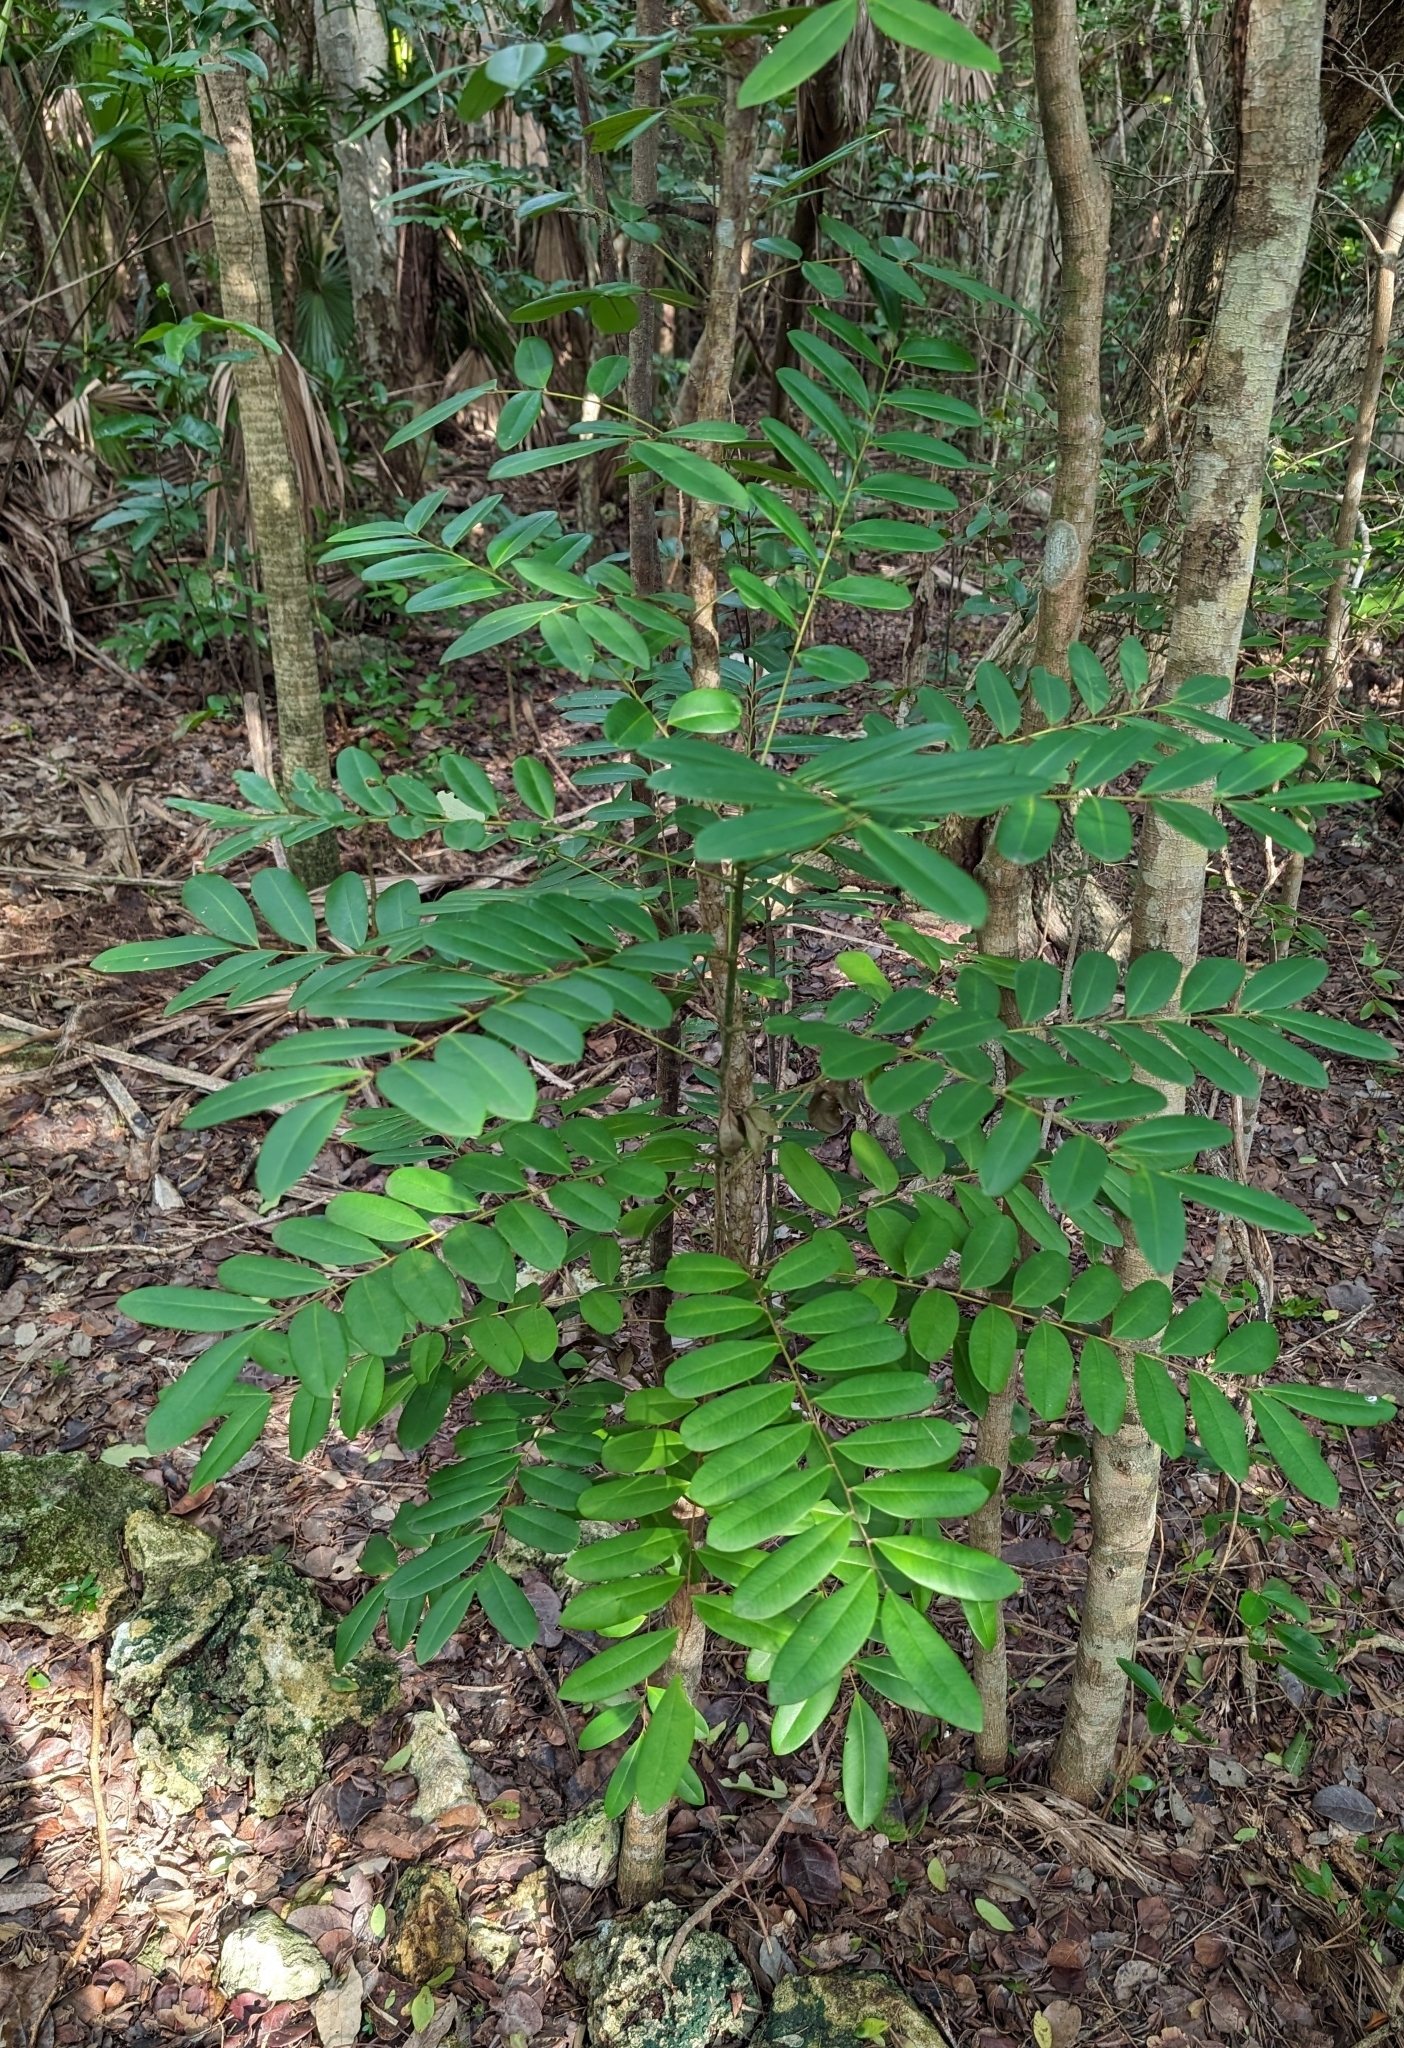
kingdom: Plantae
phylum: Tracheophyta
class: Magnoliopsida
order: Sapindales
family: Simaroubaceae
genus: Simarouba
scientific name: Simarouba glauca
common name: Dysentery-bark
